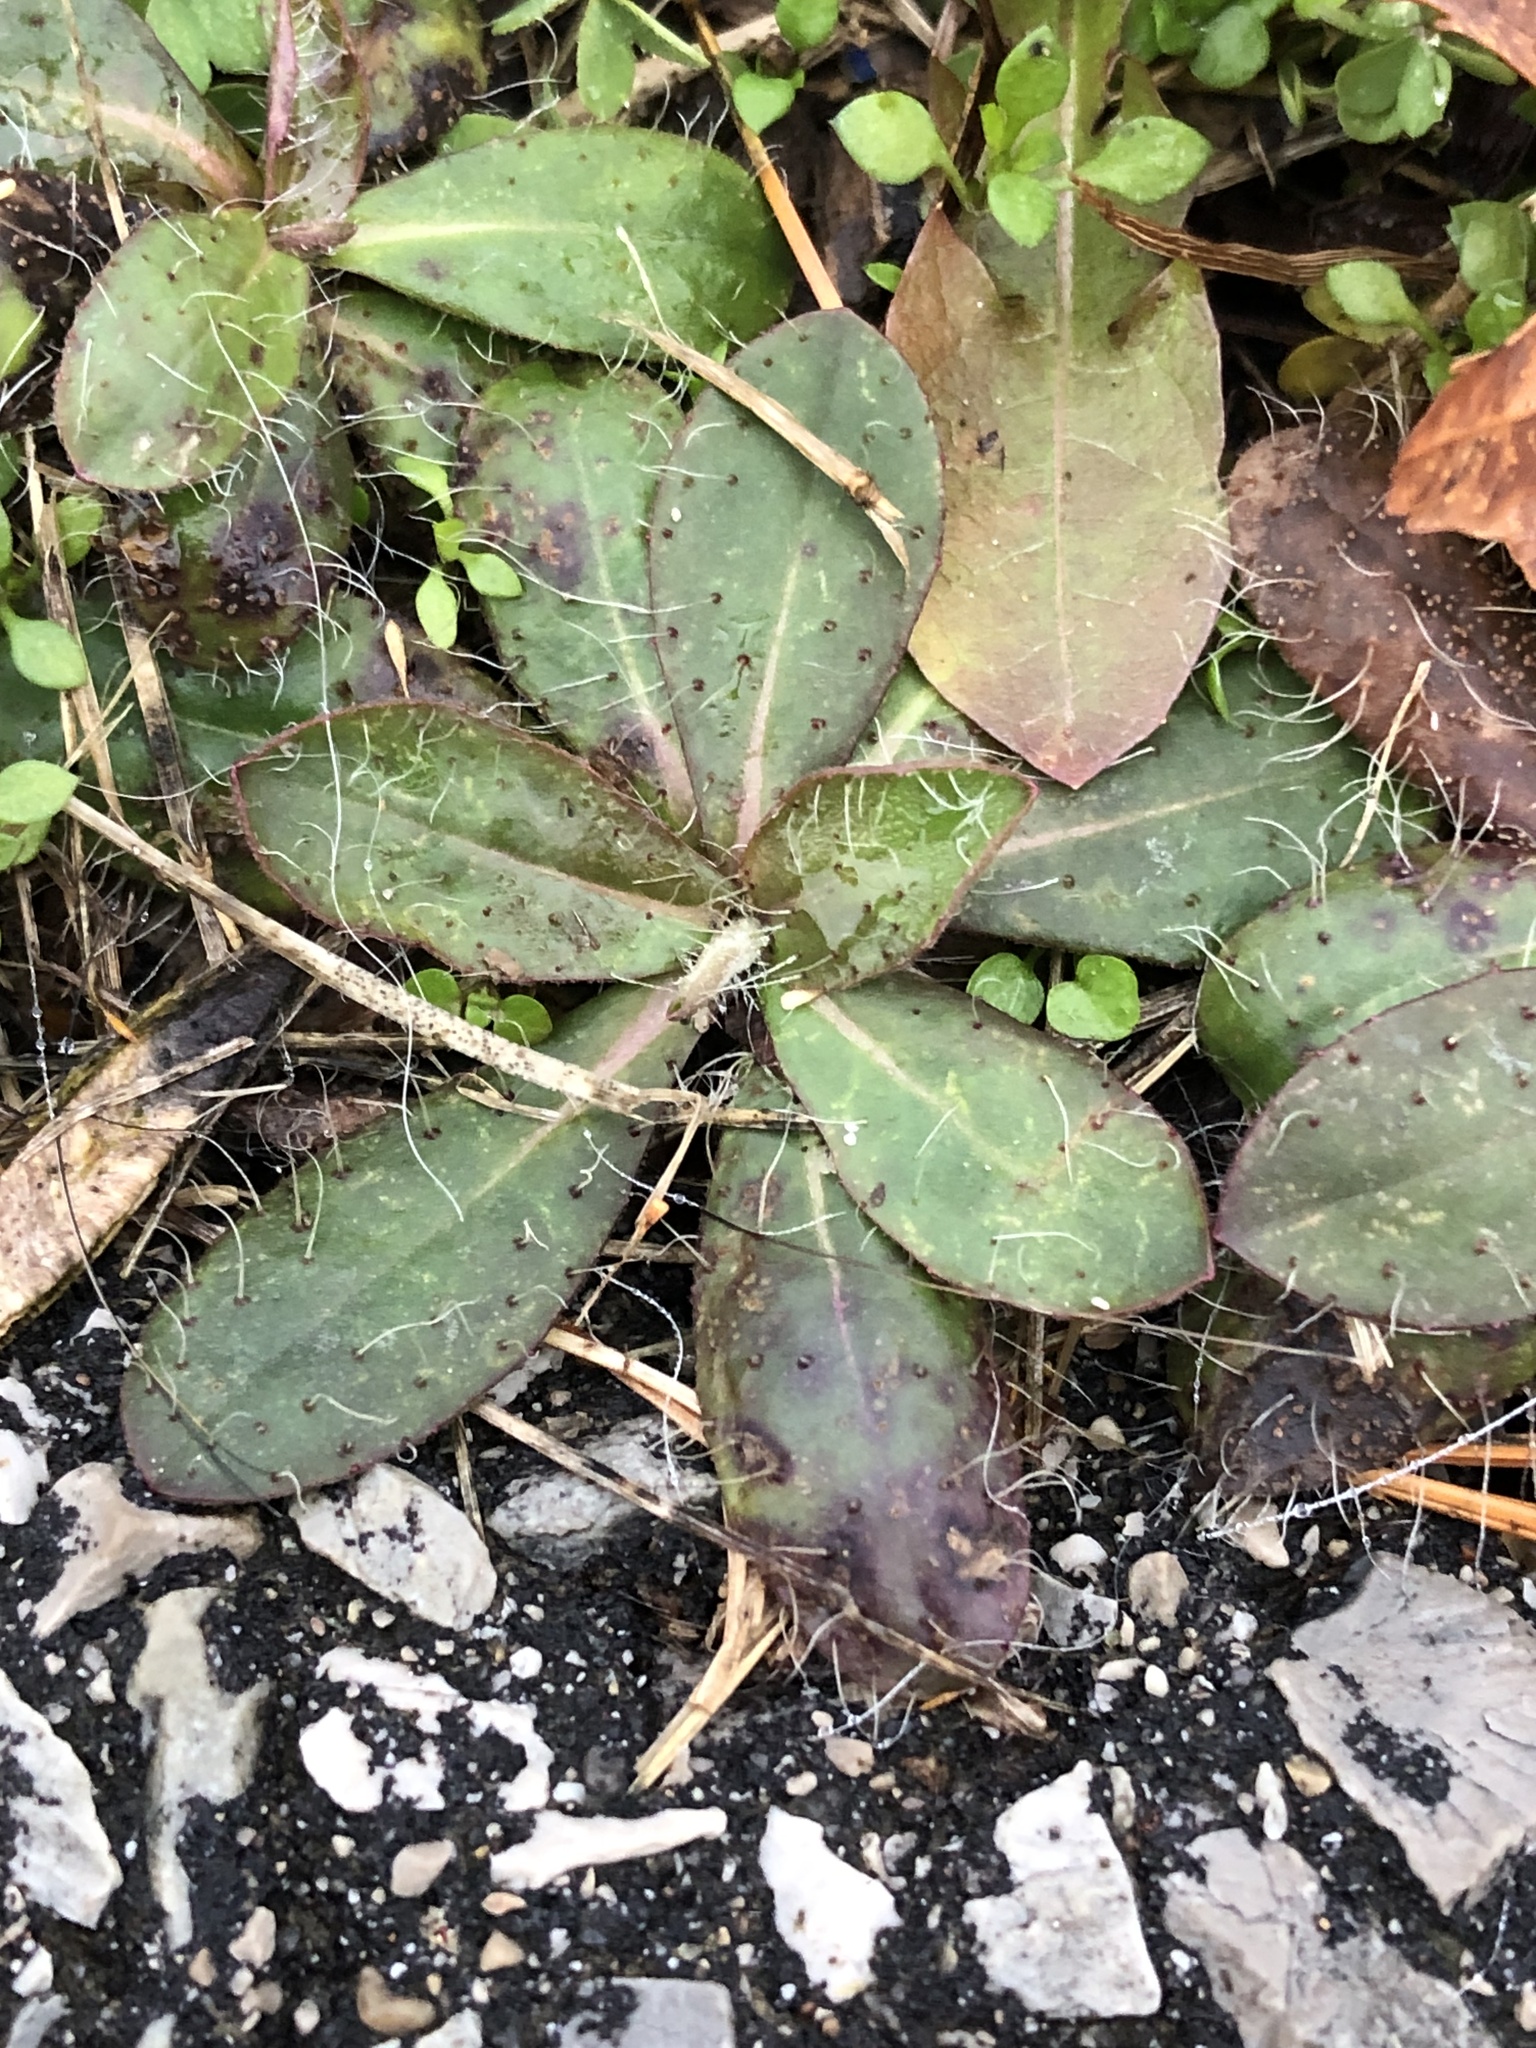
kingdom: Plantae
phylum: Tracheophyta
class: Magnoliopsida
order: Asterales
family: Asteraceae
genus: Pilosella
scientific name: Pilosella officinarum
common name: Mouse-ear hawkweed
